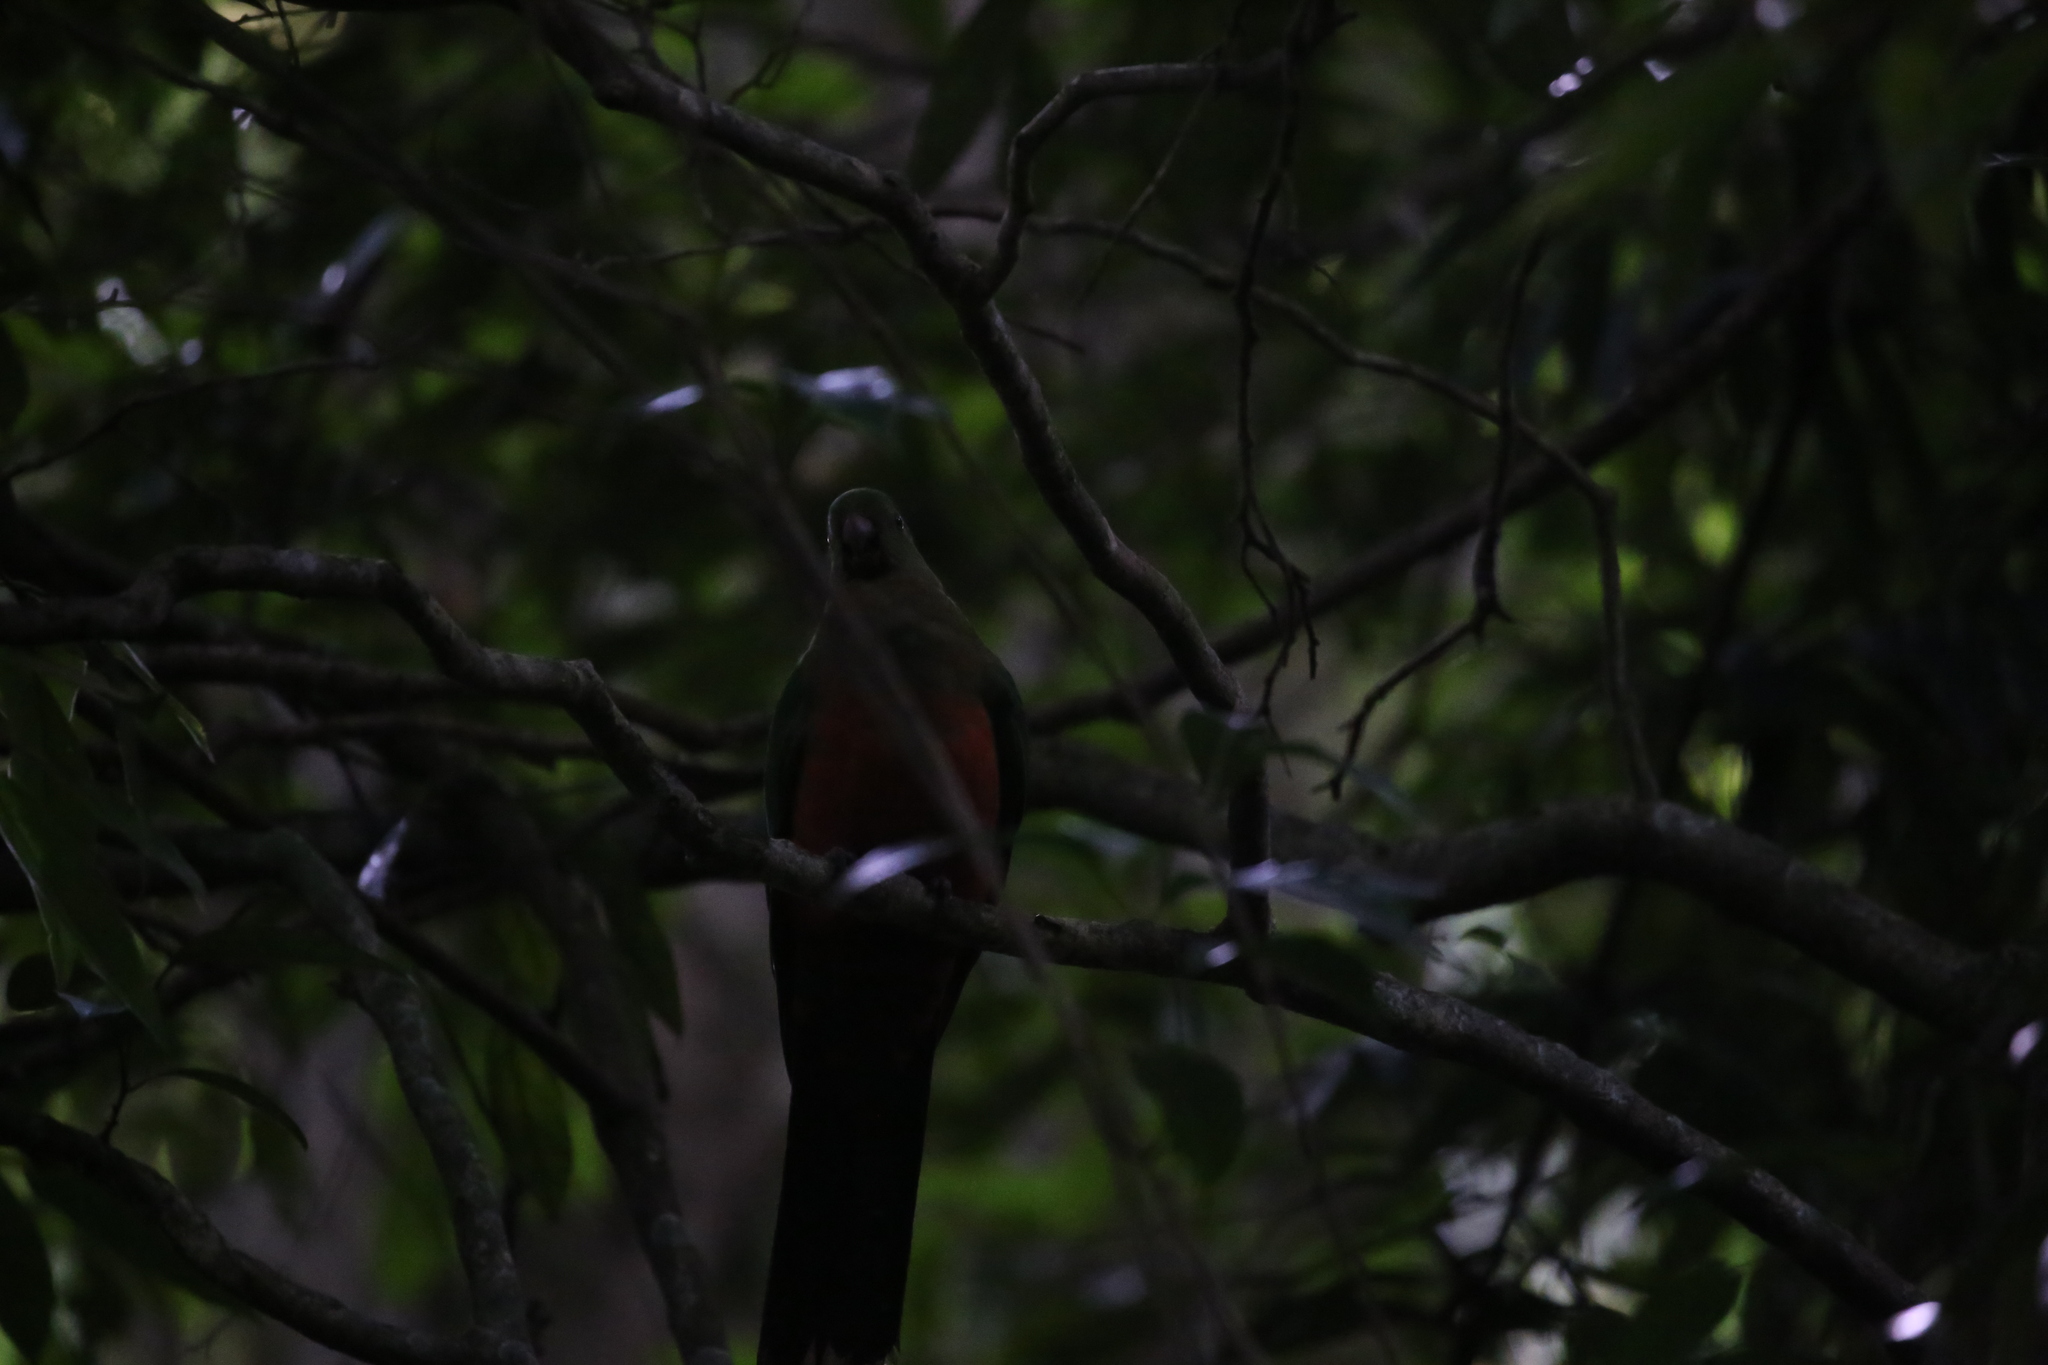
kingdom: Animalia
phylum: Chordata
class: Aves
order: Psittaciformes
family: Psittacidae
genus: Alisterus
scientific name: Alisterus scapularis
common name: Australian king parrot
